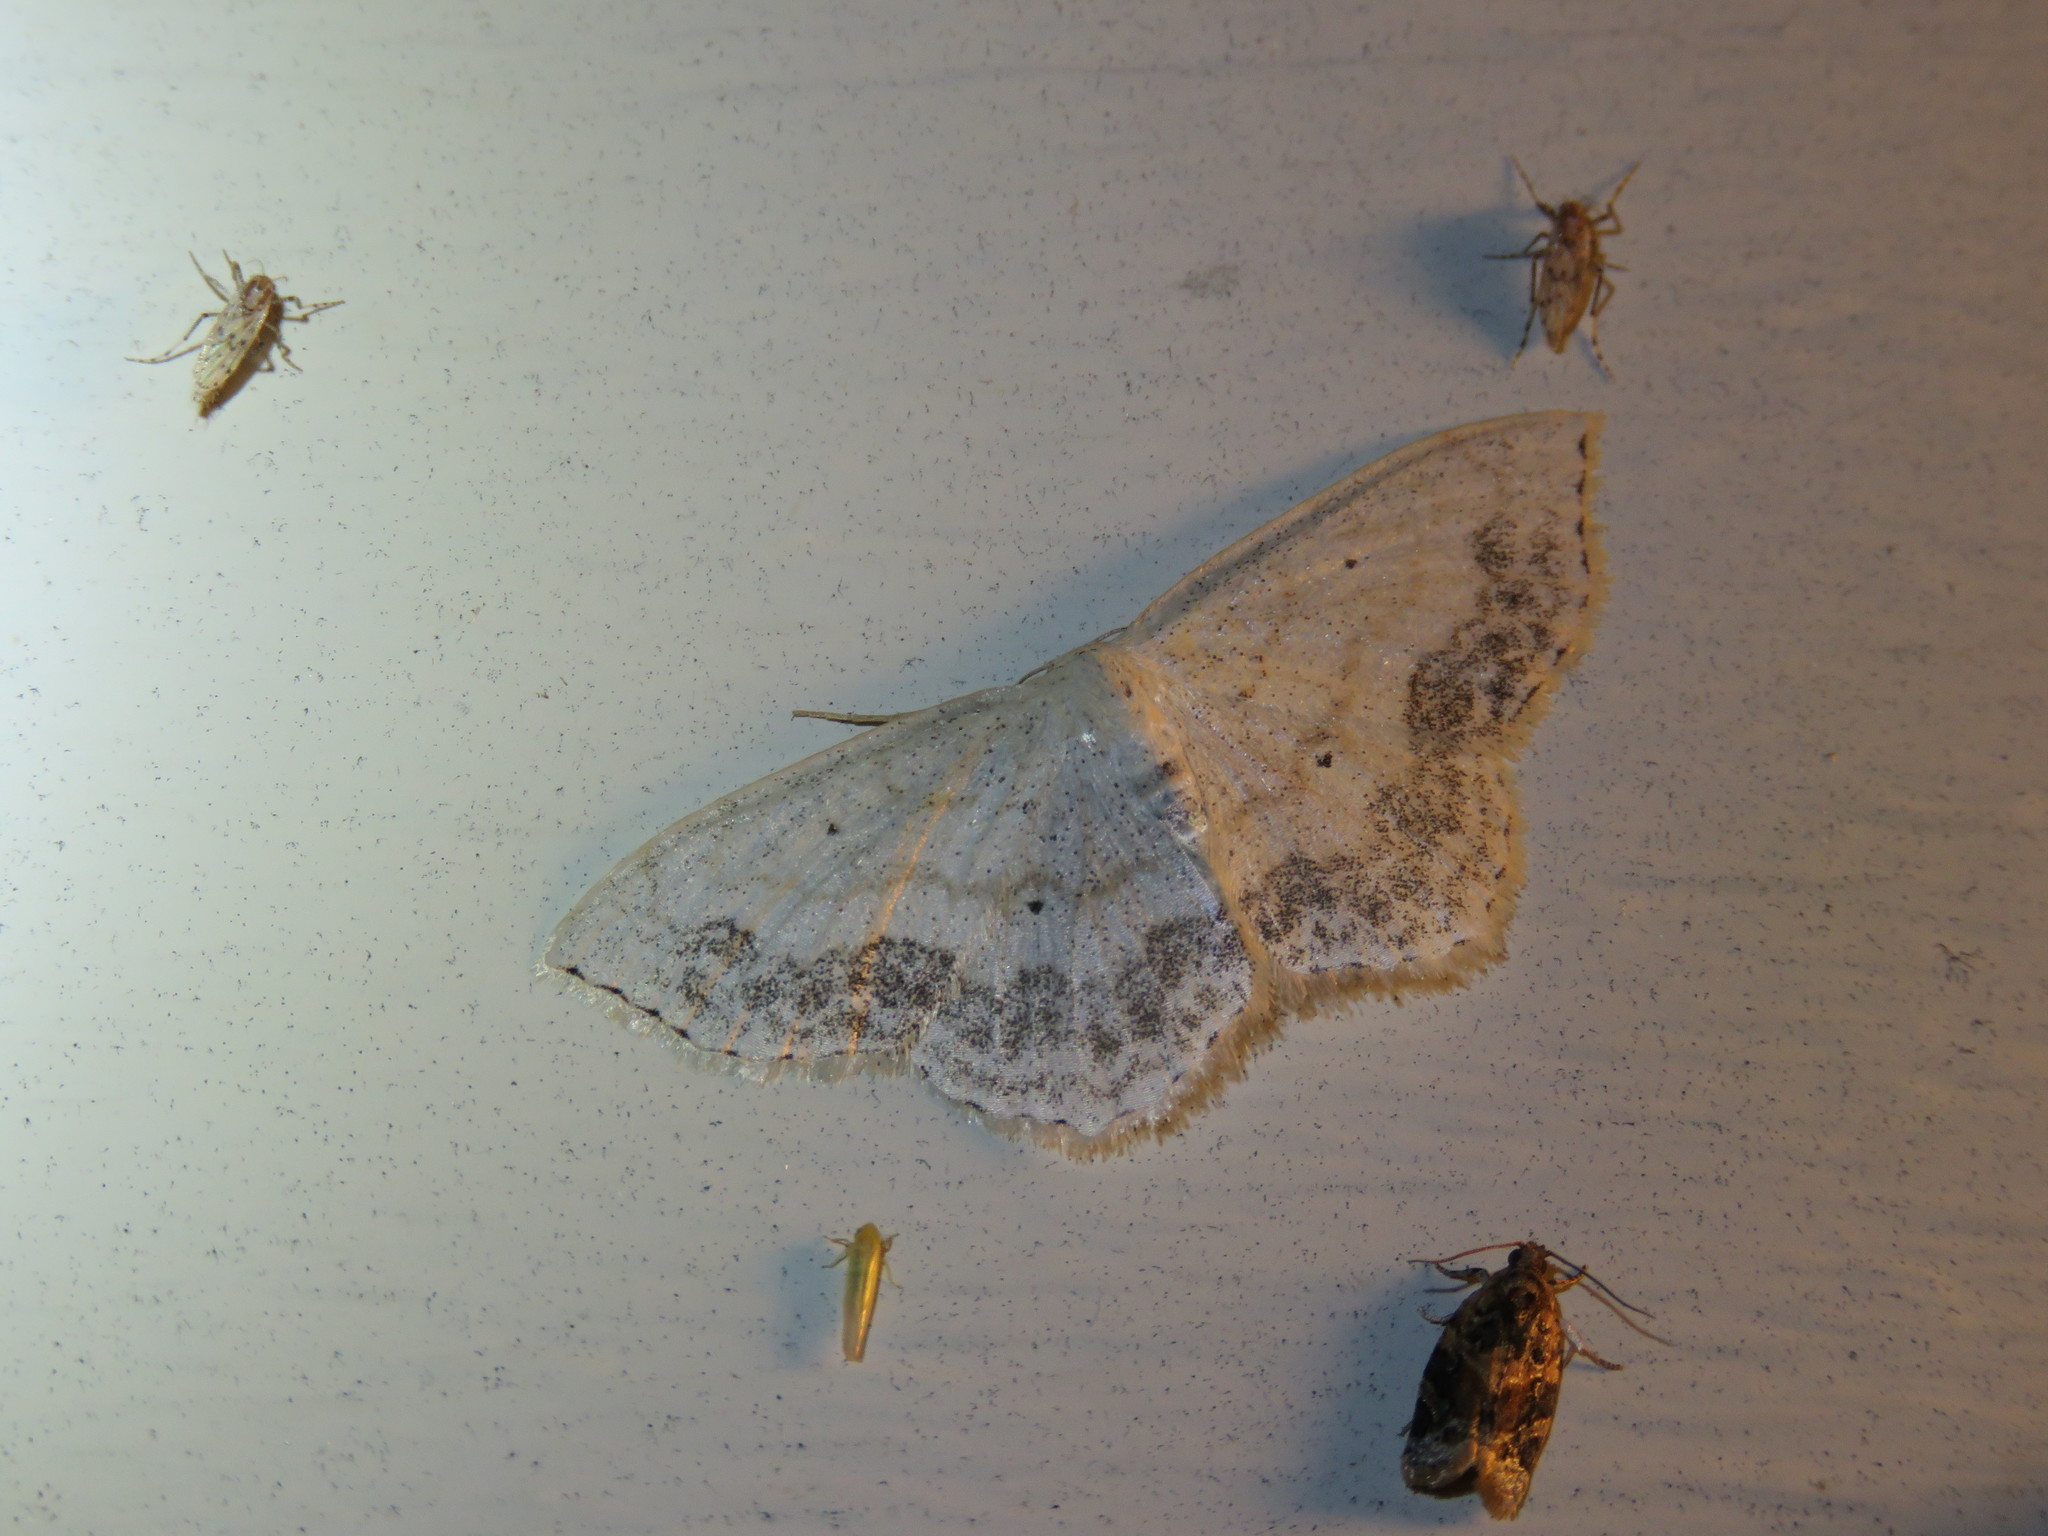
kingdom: Animalia
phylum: Arthropoda
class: Insecta
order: Lepidoptera
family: Geometridae
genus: Scopula
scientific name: Scopula limboundata
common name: Large lace border
